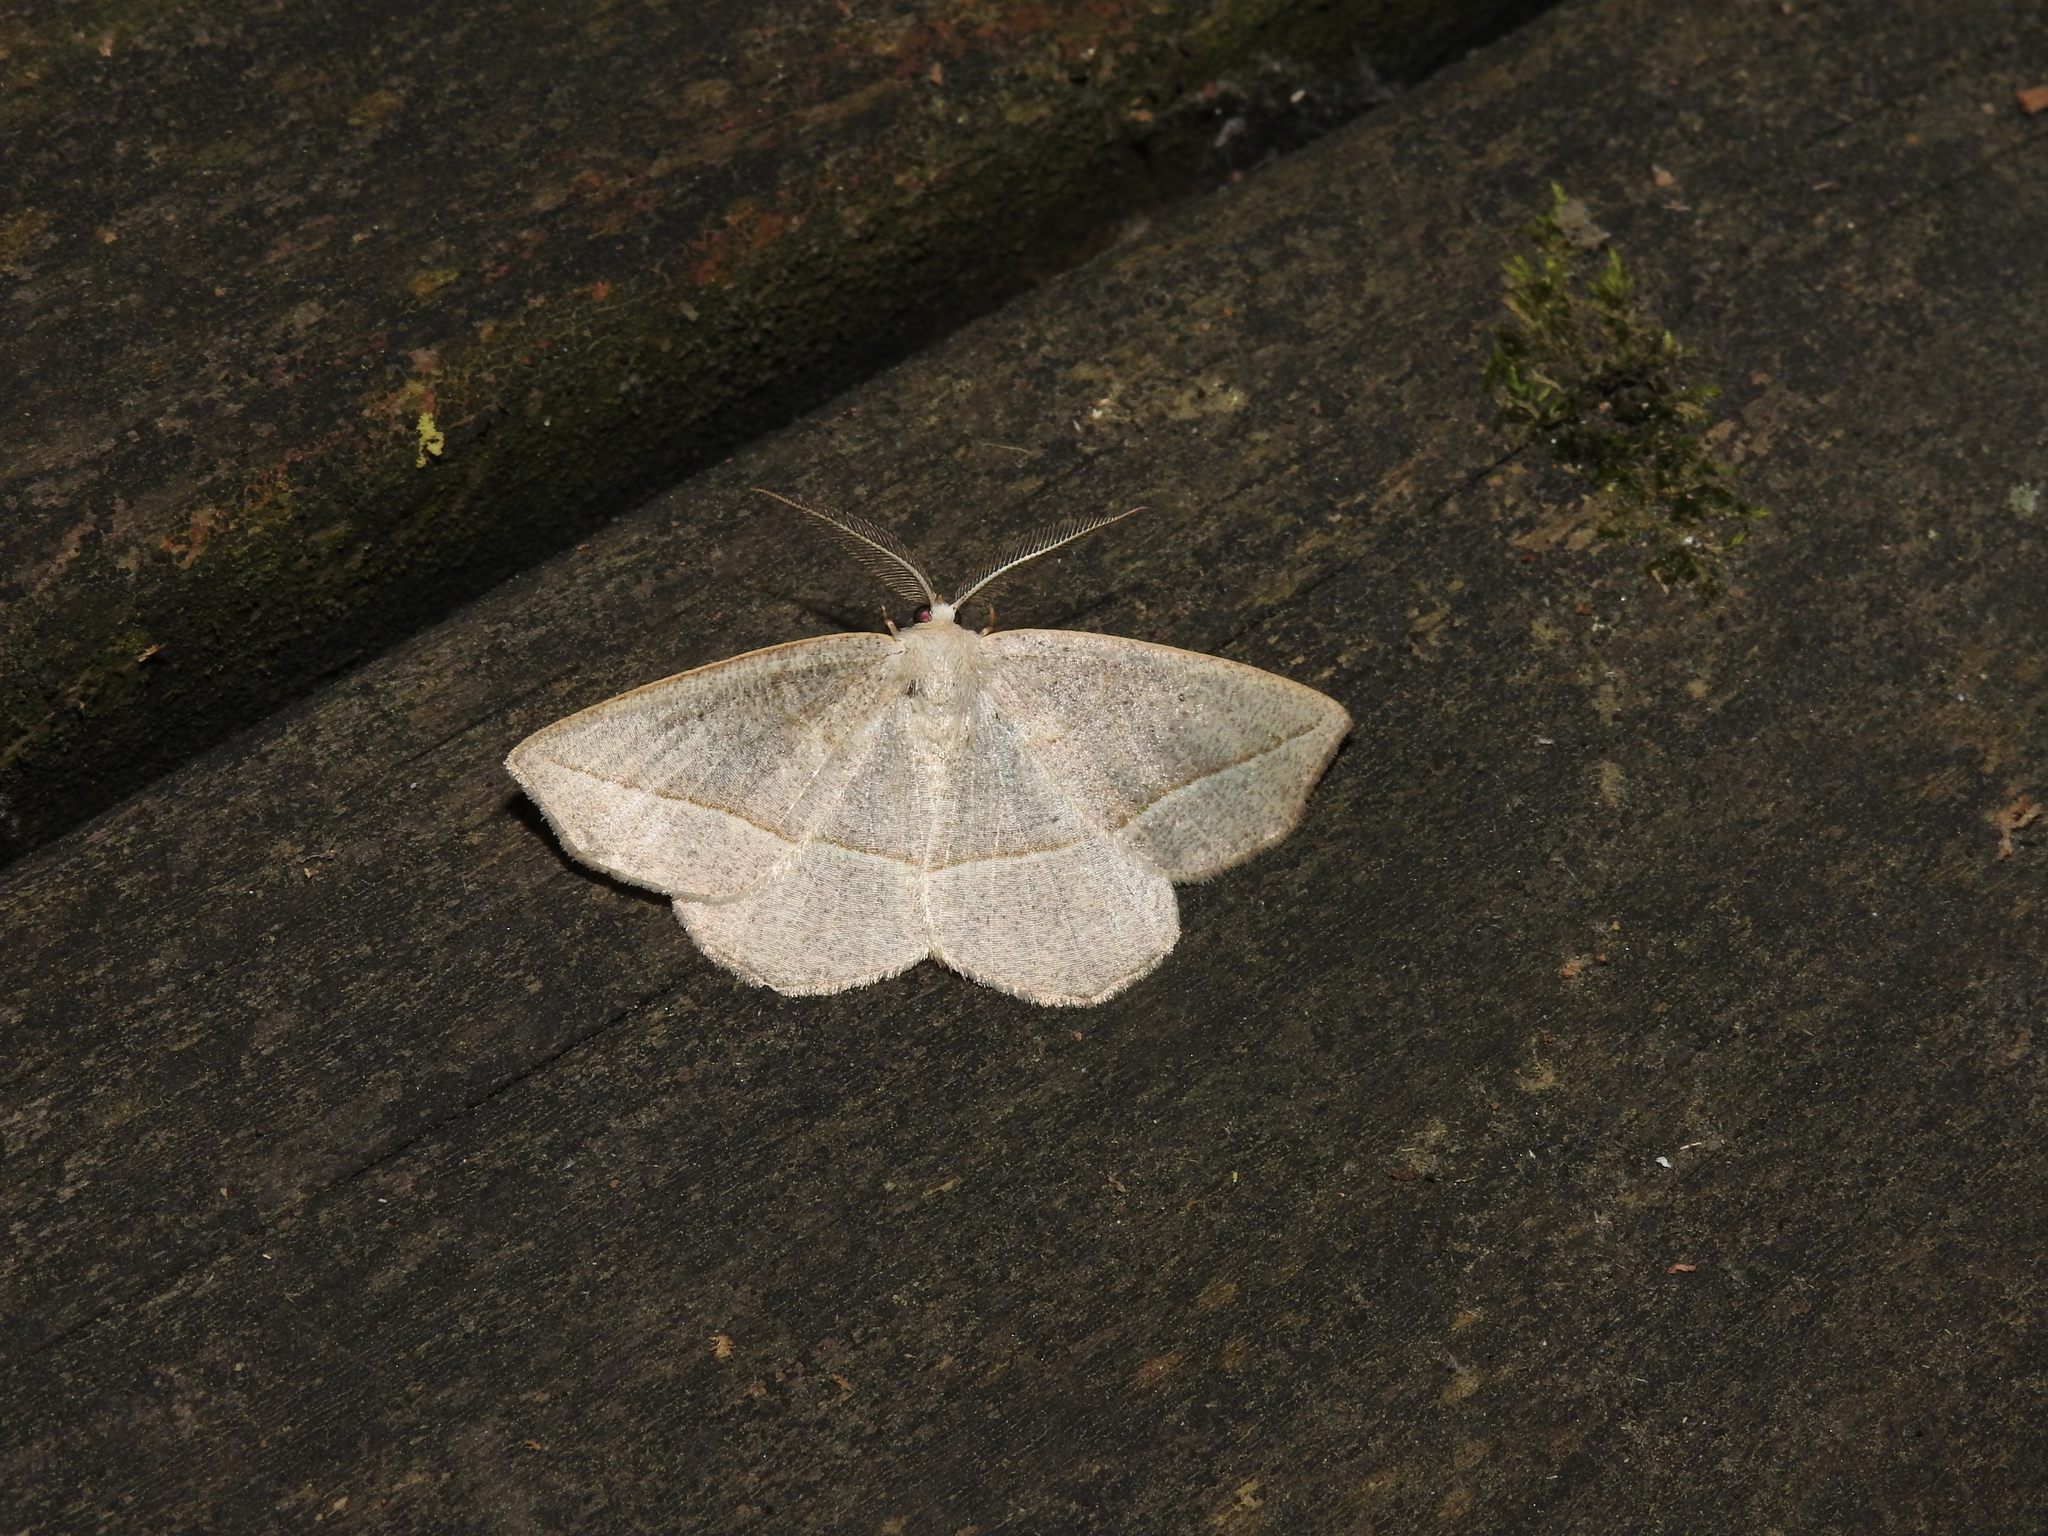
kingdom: Animalia
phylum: Arthropoda
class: Insecta
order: Lepidoptera
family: Geometridae
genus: Eusarca
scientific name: Eusarca confusaria
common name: Confused eusarca
